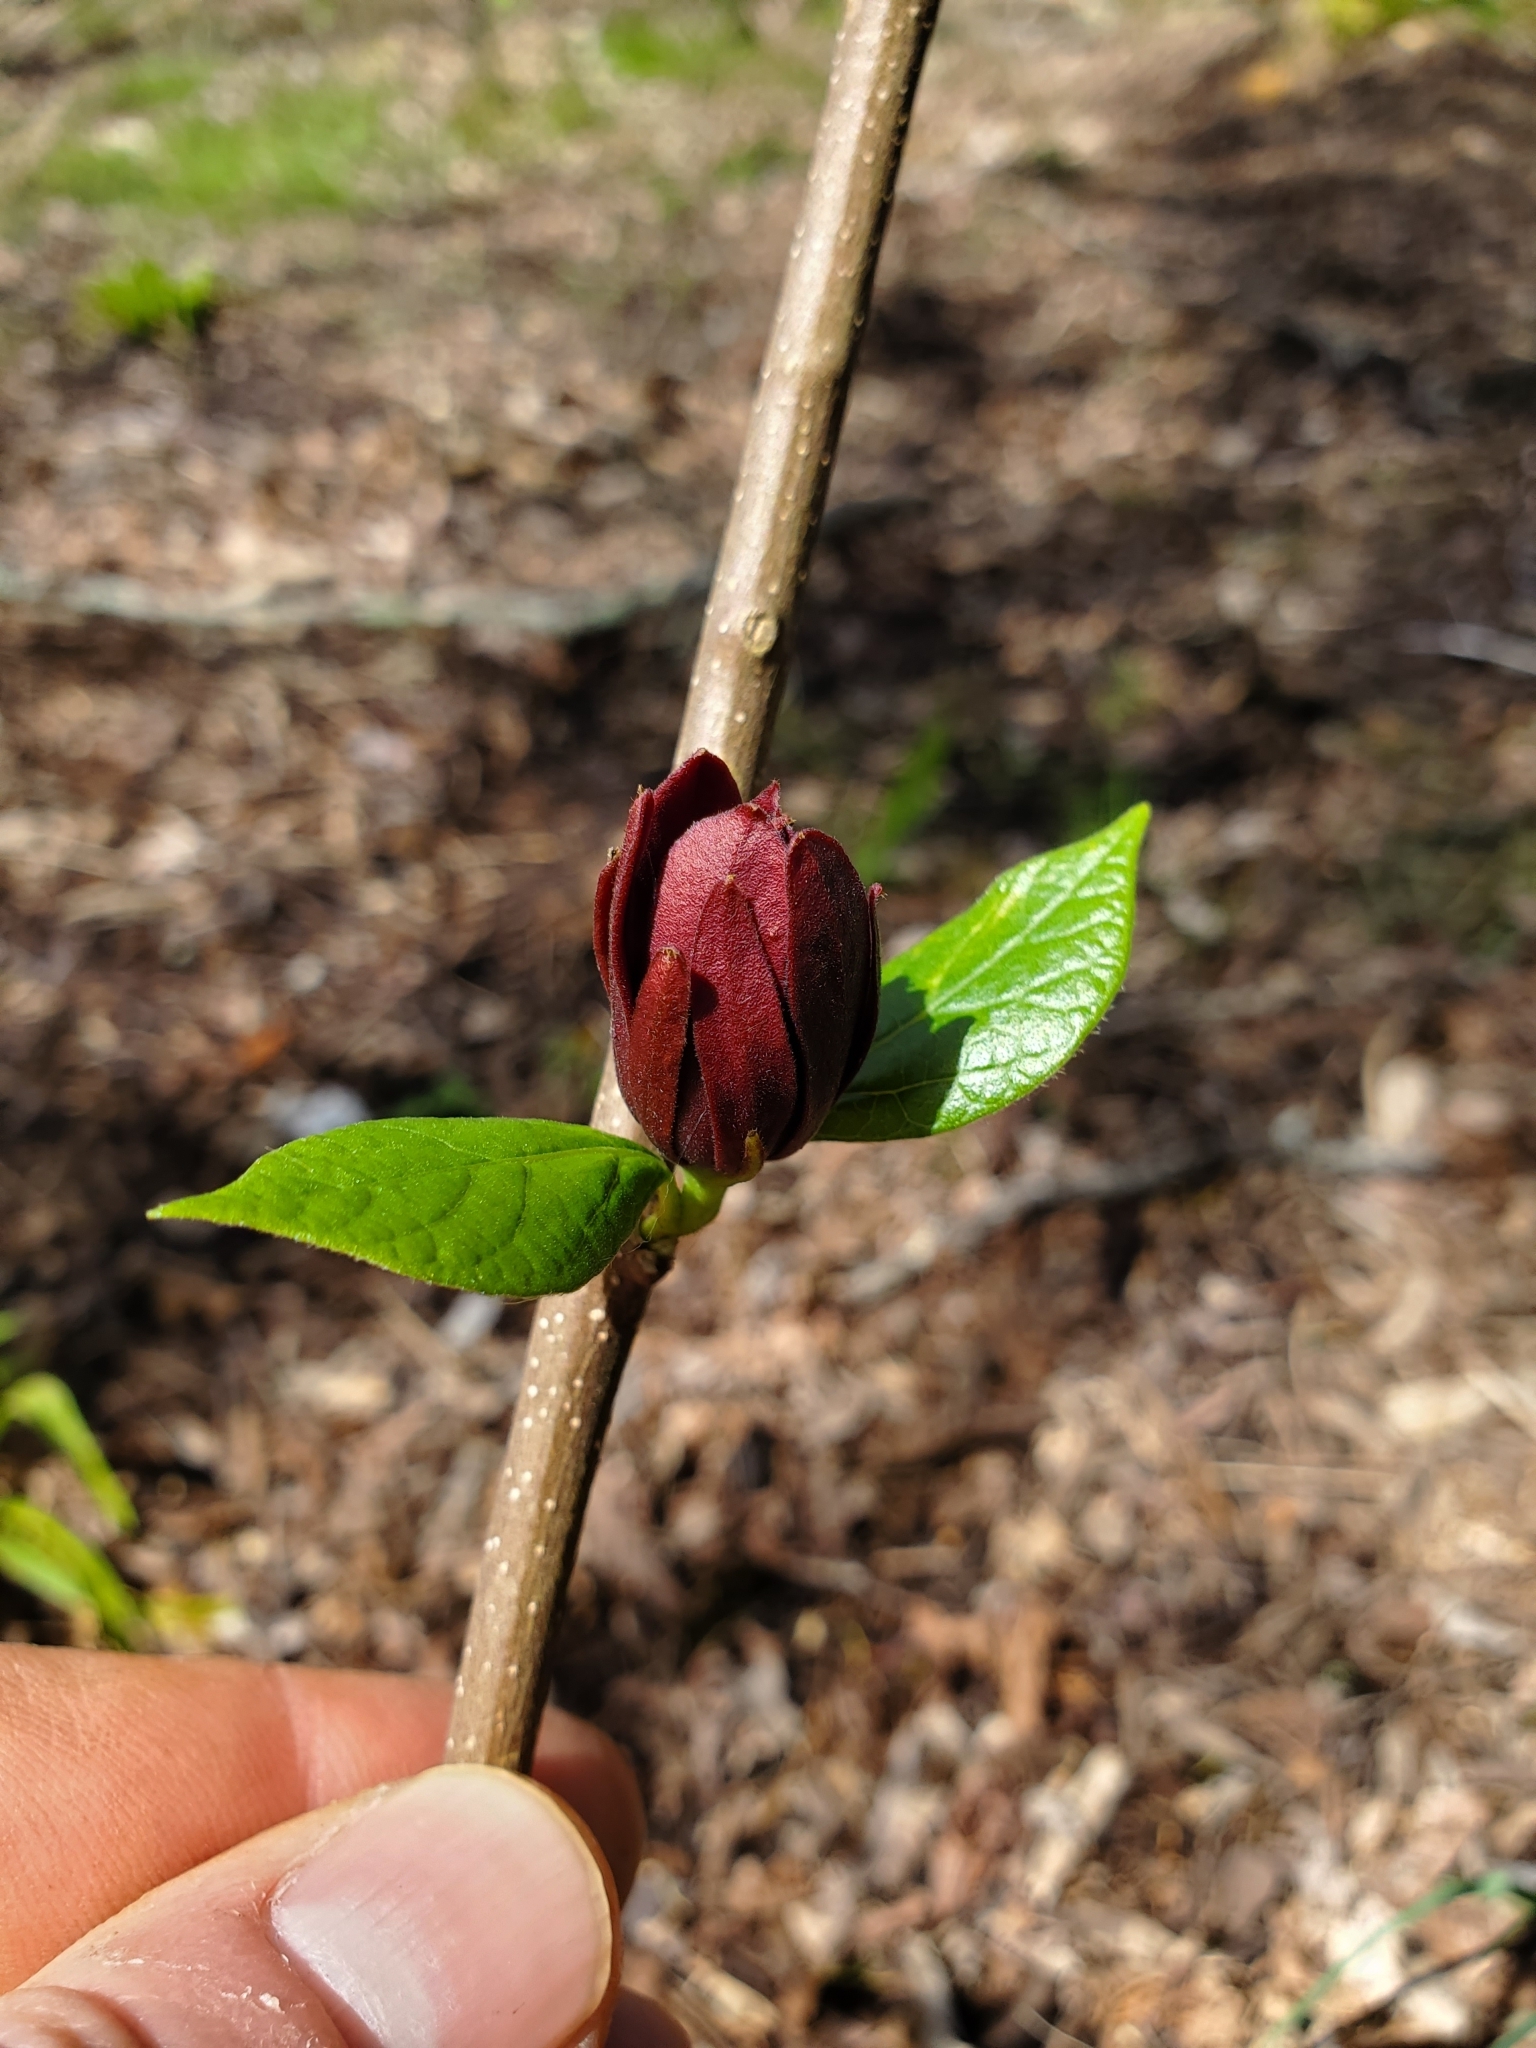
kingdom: Plantae
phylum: Tracheophyta
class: Magnoliopsida
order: Laurales
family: Calycanthaceae
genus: Calycanthus
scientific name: Calycanthus floridus
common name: Carolina-allspice
